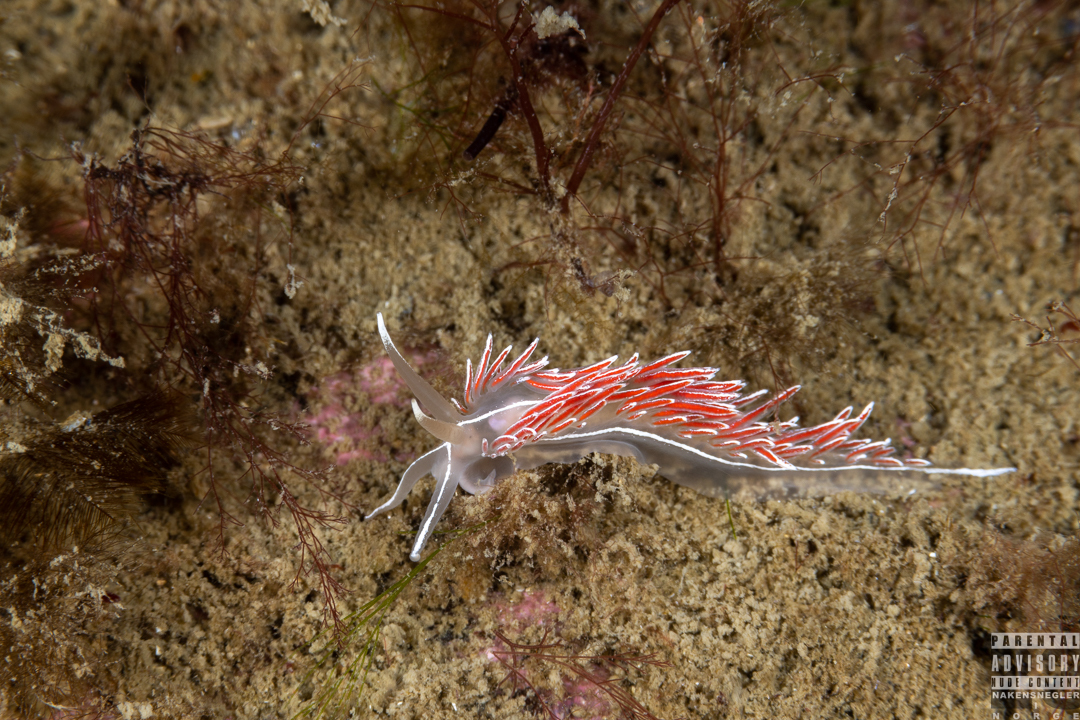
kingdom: Animalia
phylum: Mollusca
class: Gastropoda
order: Nudibranchia
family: Coryphellidae
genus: Coryphella
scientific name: Coryphella lineata
